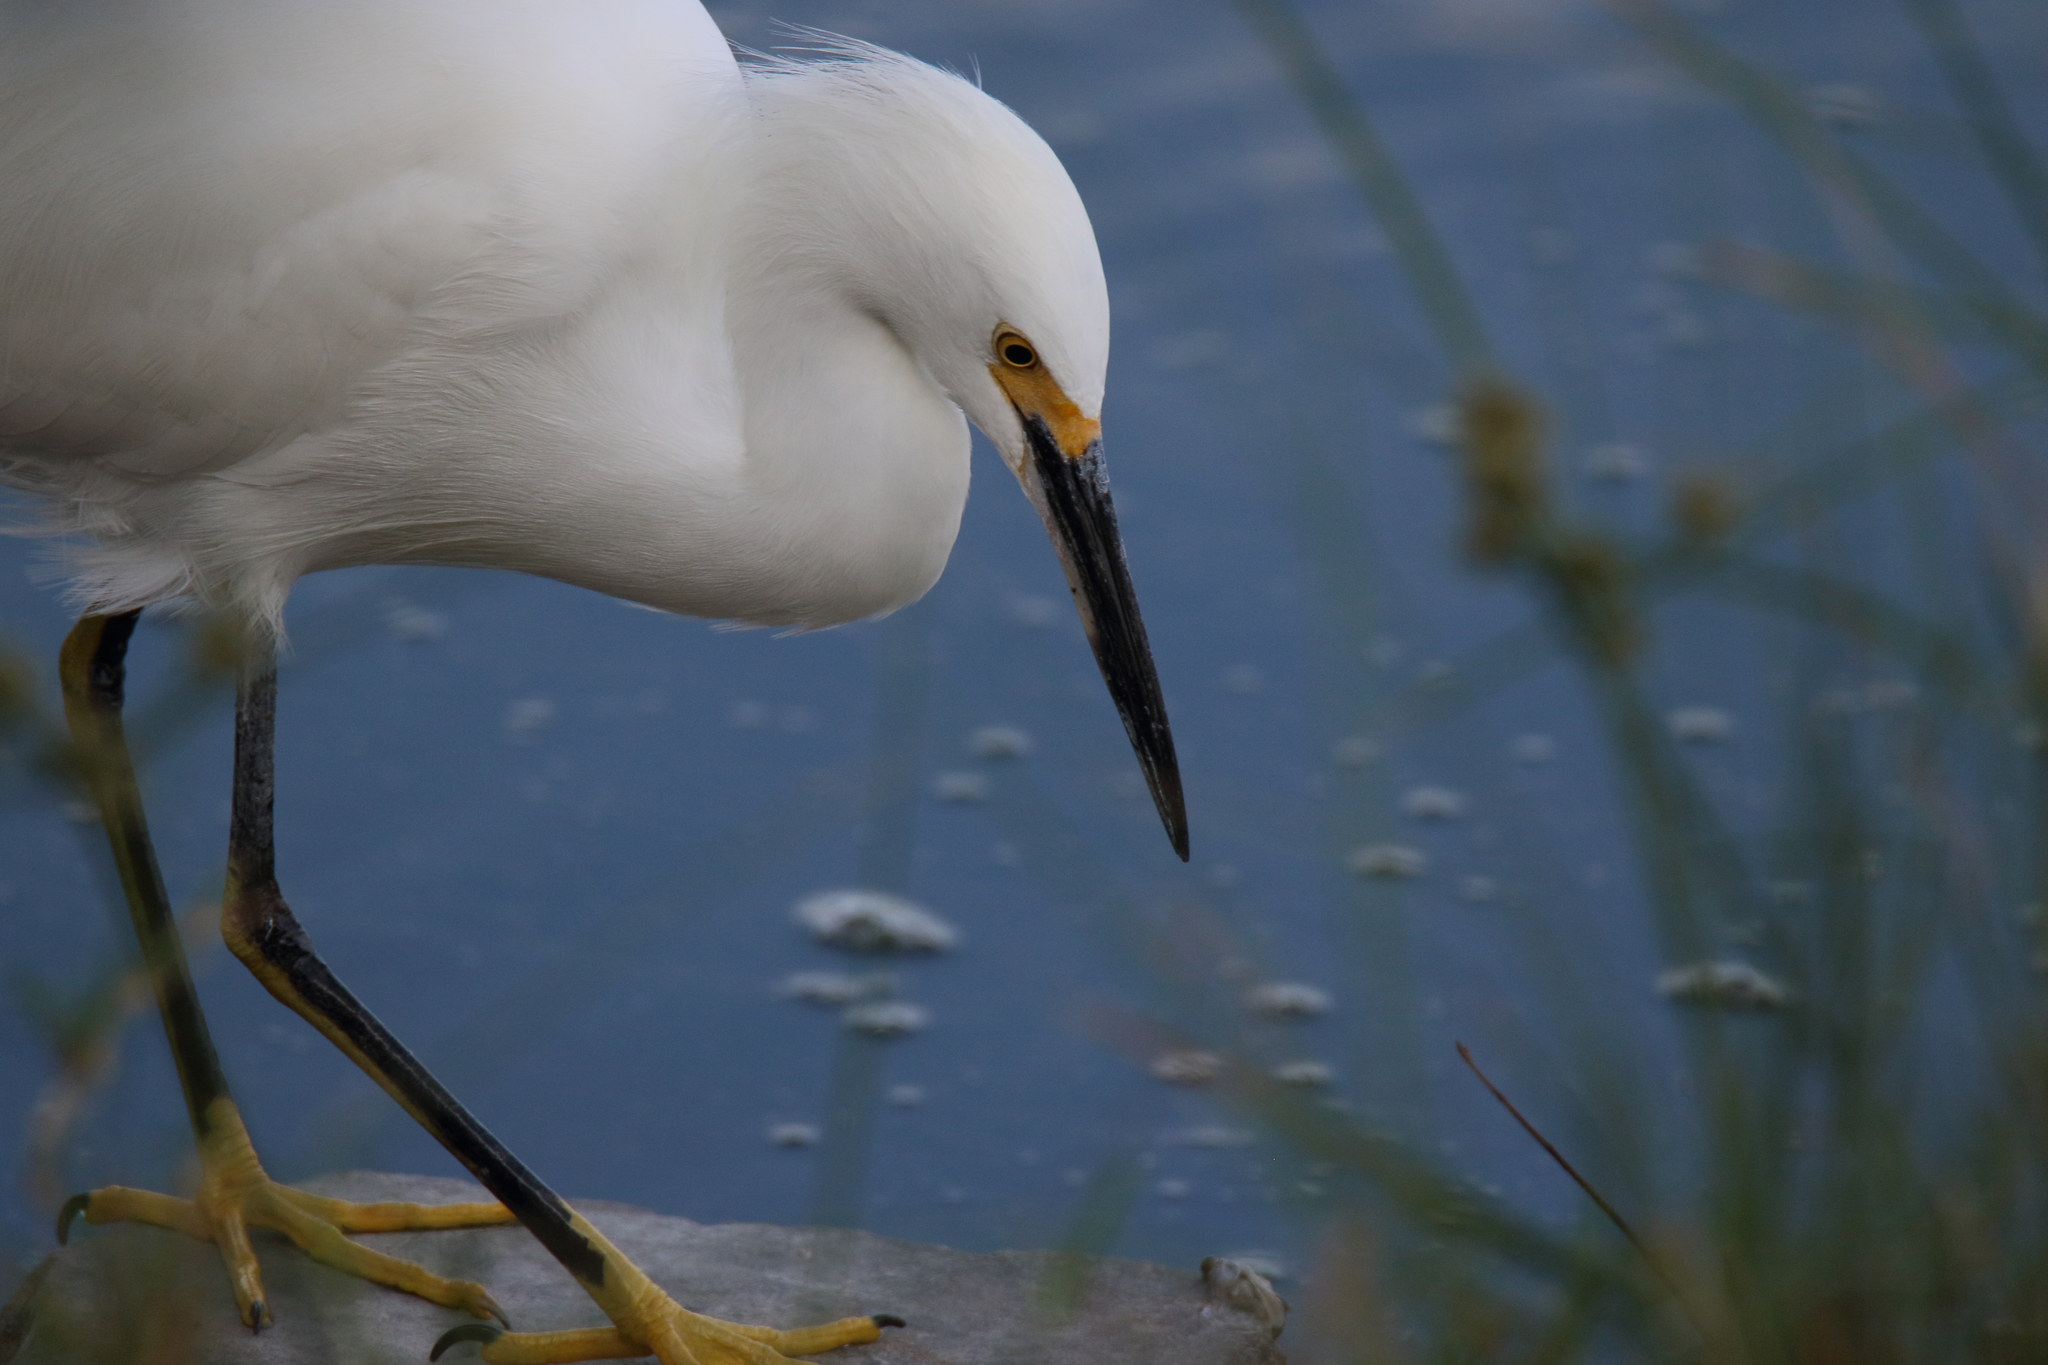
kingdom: Animalia
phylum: Chordata
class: Aves
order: Pelecaniformes
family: Ardeidae
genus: Egretta
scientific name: Egretta thula
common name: Snowy egret
